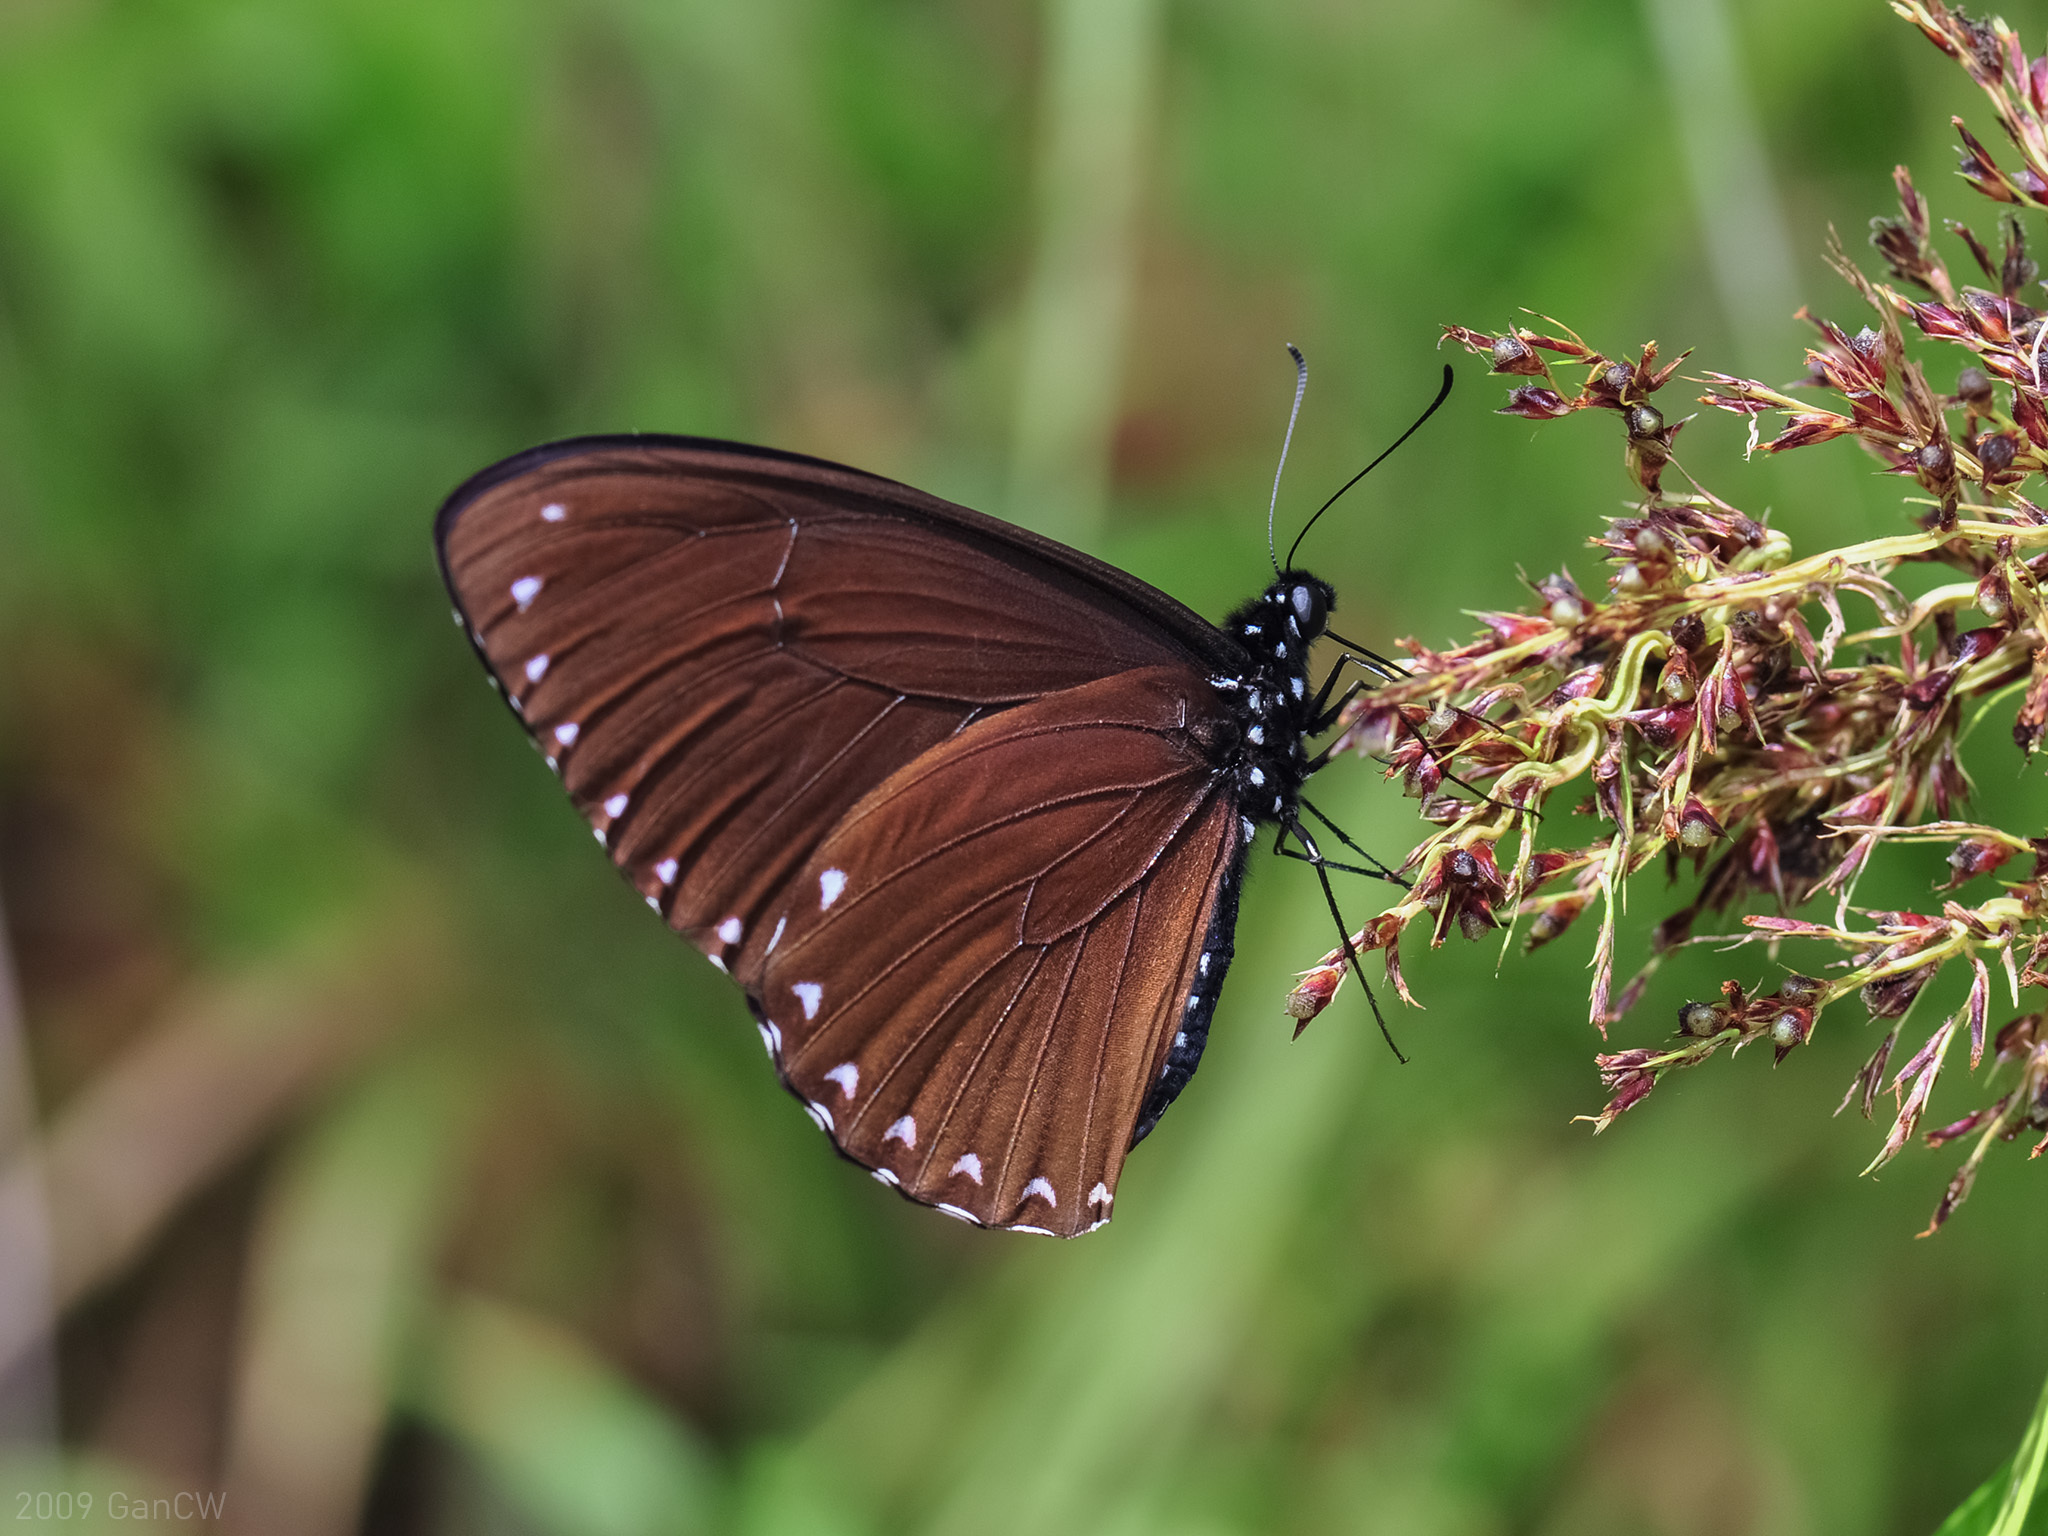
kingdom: Animalia
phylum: Arthropoda
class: Insecta
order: Lepidoptera
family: Papilionidae
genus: Papilio
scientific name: Papilio paradoxa
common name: Great blue mime swallowtail
